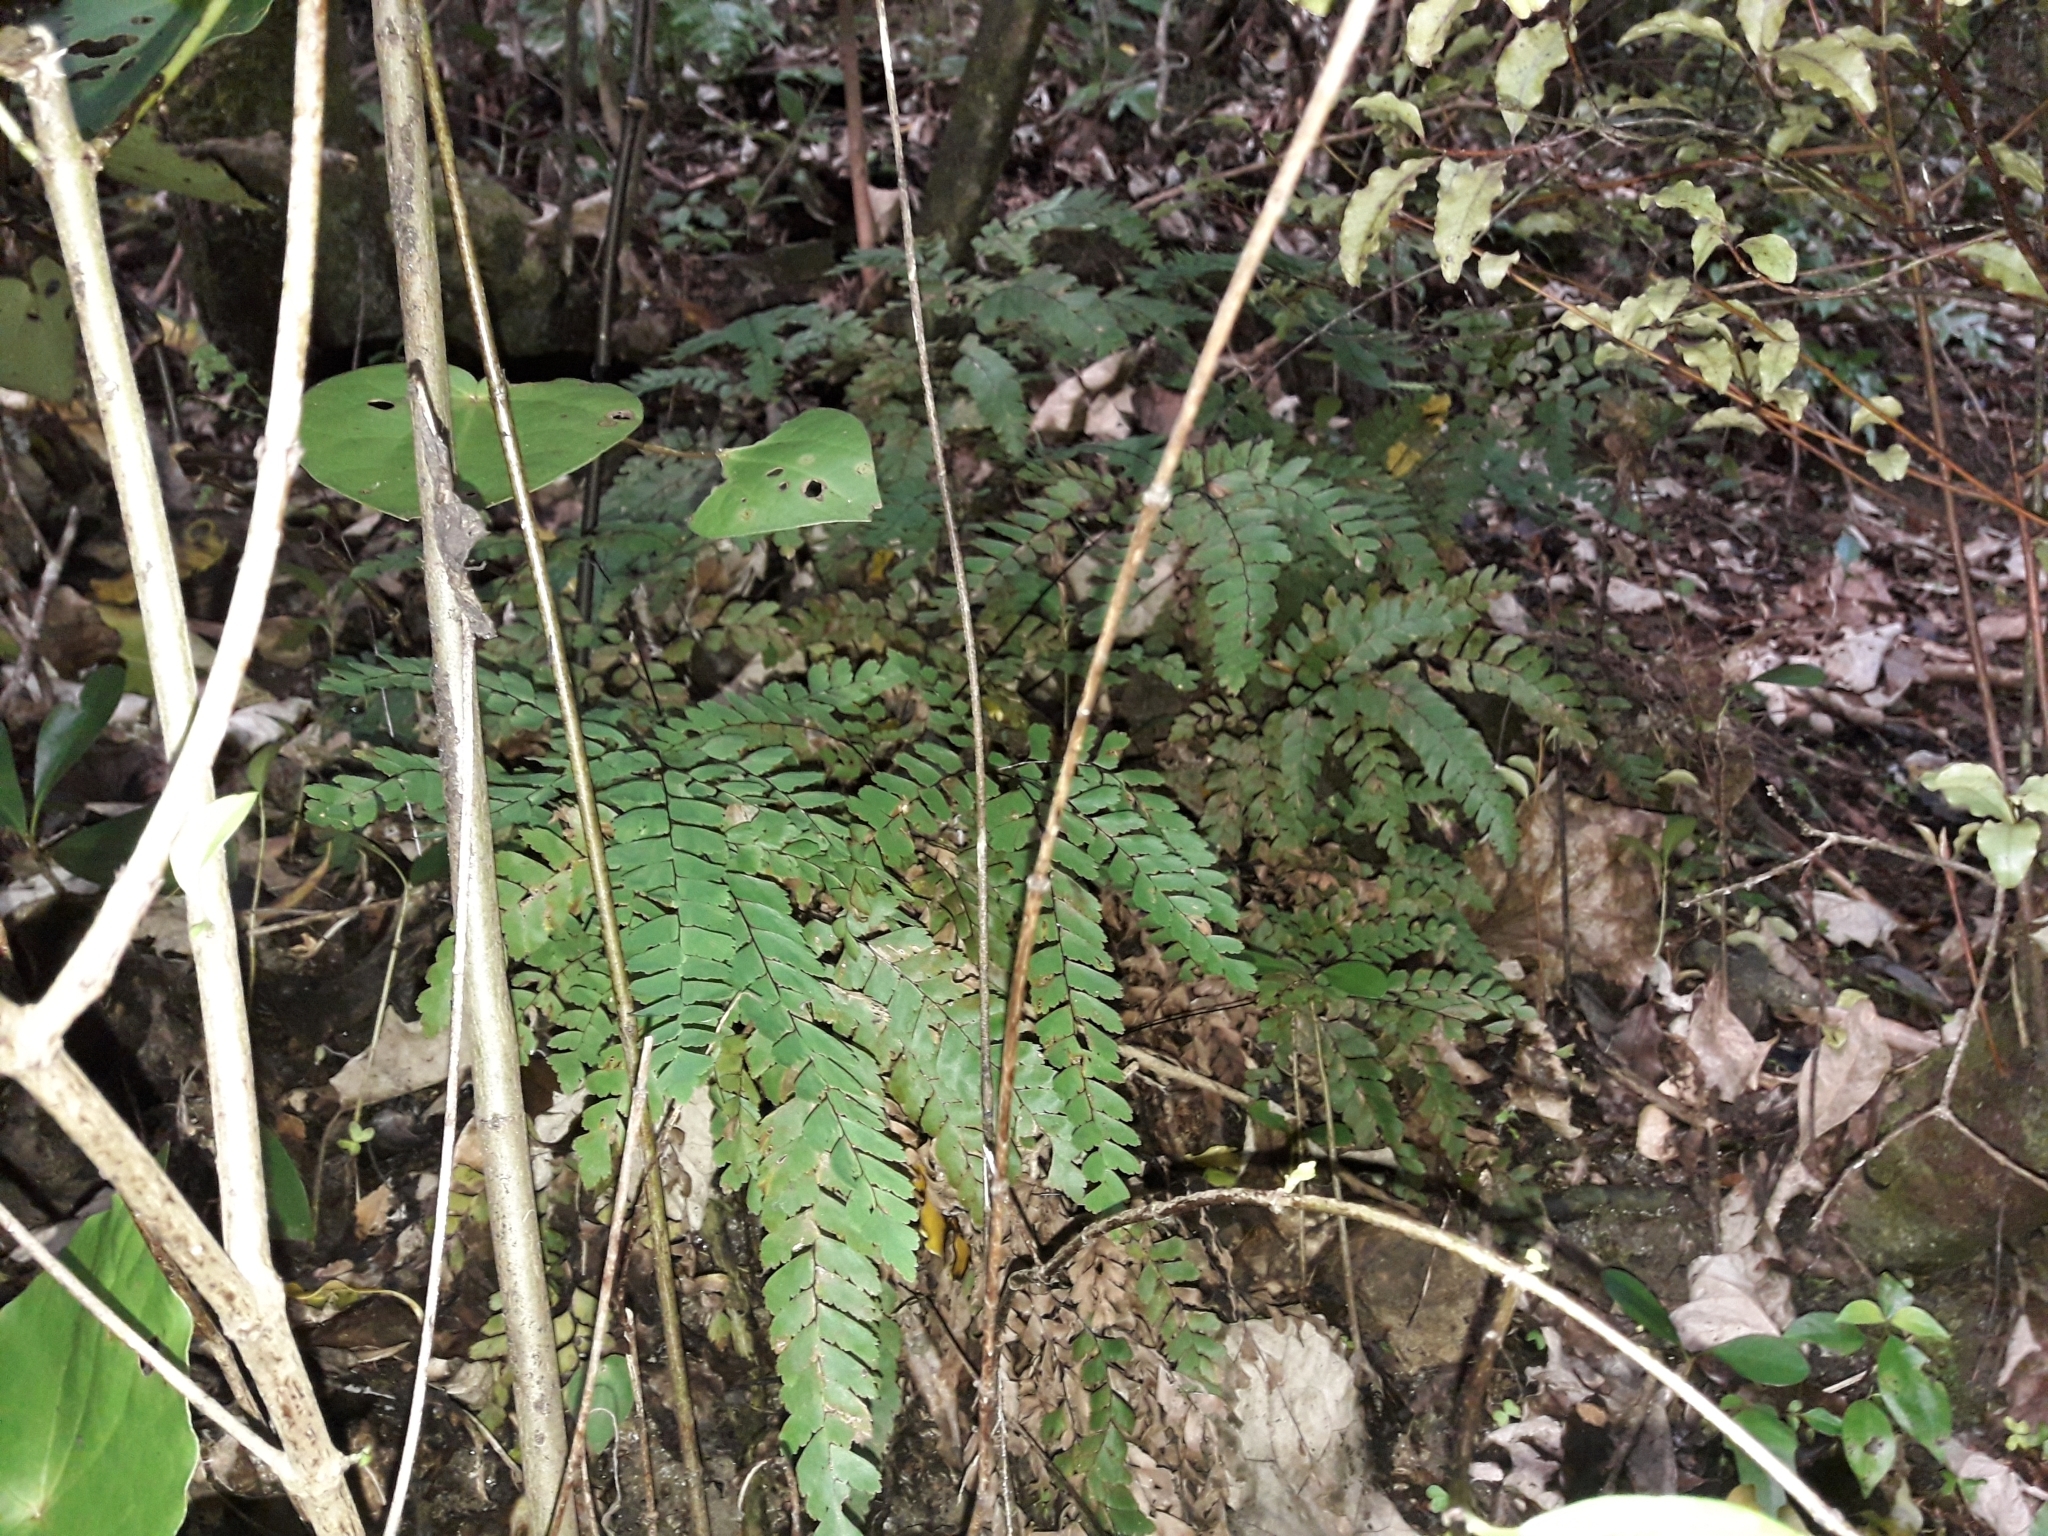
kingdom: Plantae
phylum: Tracheophyta
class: Polypodiopsida
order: Polypodiales
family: Pteridaceae
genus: Adiantum
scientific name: Adiantum cunninghamii
